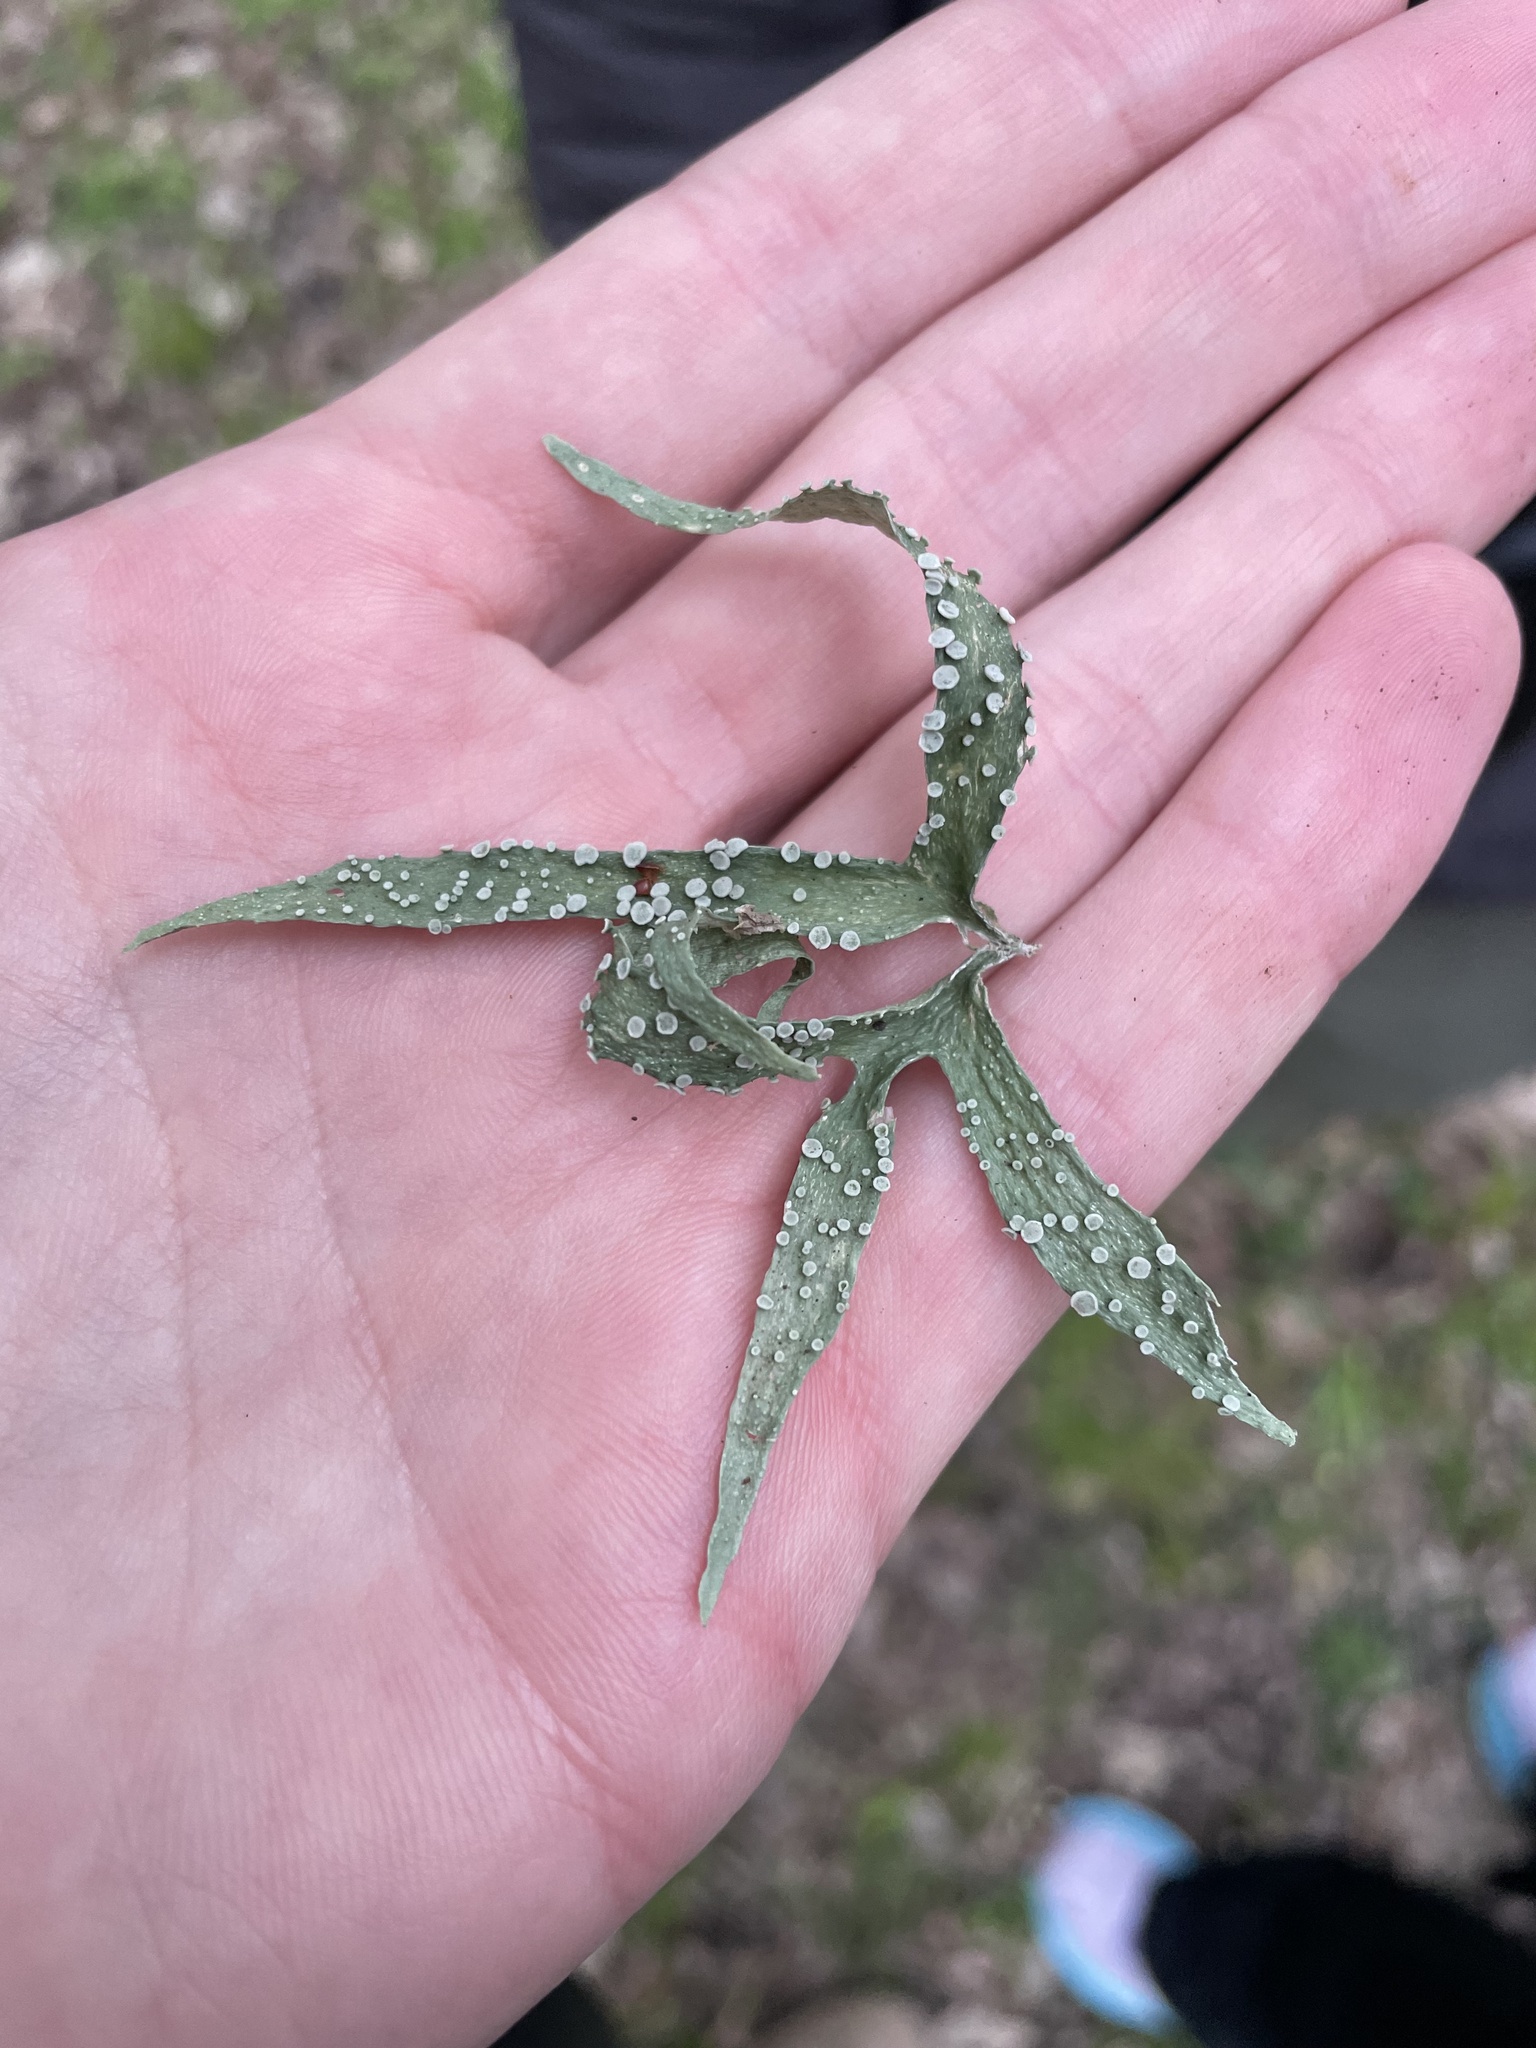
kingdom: Fungi
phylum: Ascomycota
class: Lecanoromycetes
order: Lecanorales
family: Ramalinaceae
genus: Ramalina
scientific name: Ramalina celastri
